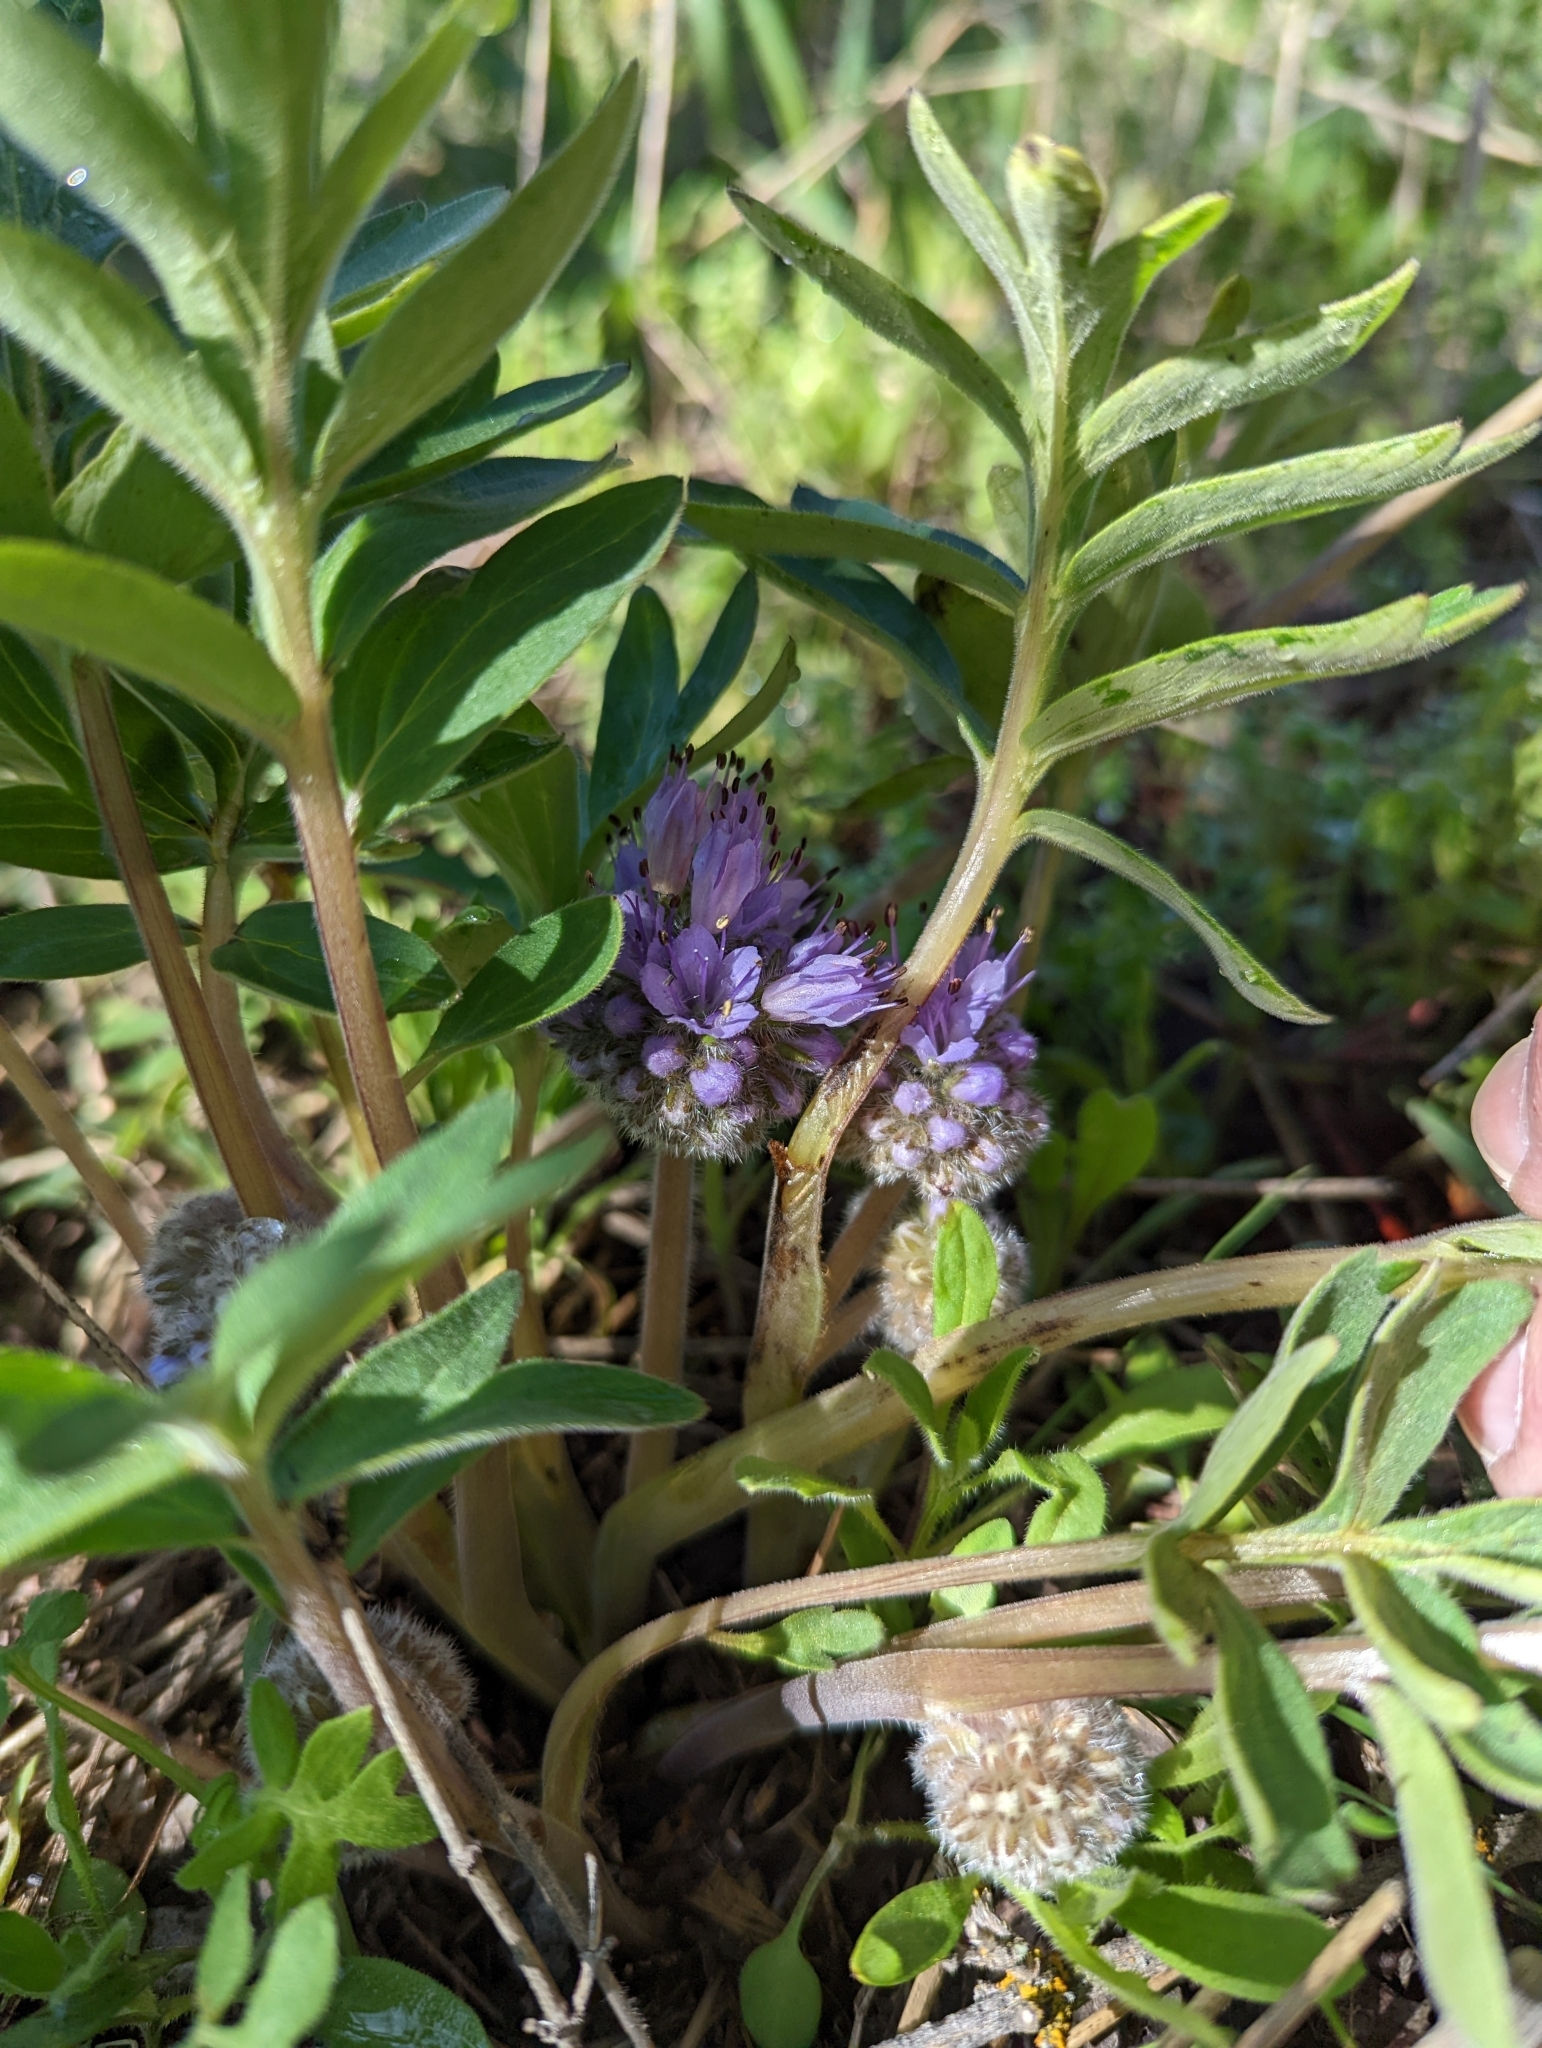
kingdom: Plantae
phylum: Tracheophyta
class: Magnoliopsida
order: Boraginales
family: Hydrophyllaceae
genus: Hydrophyllum
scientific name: Hydrophyllum capitatum
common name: Woollen-breeches
